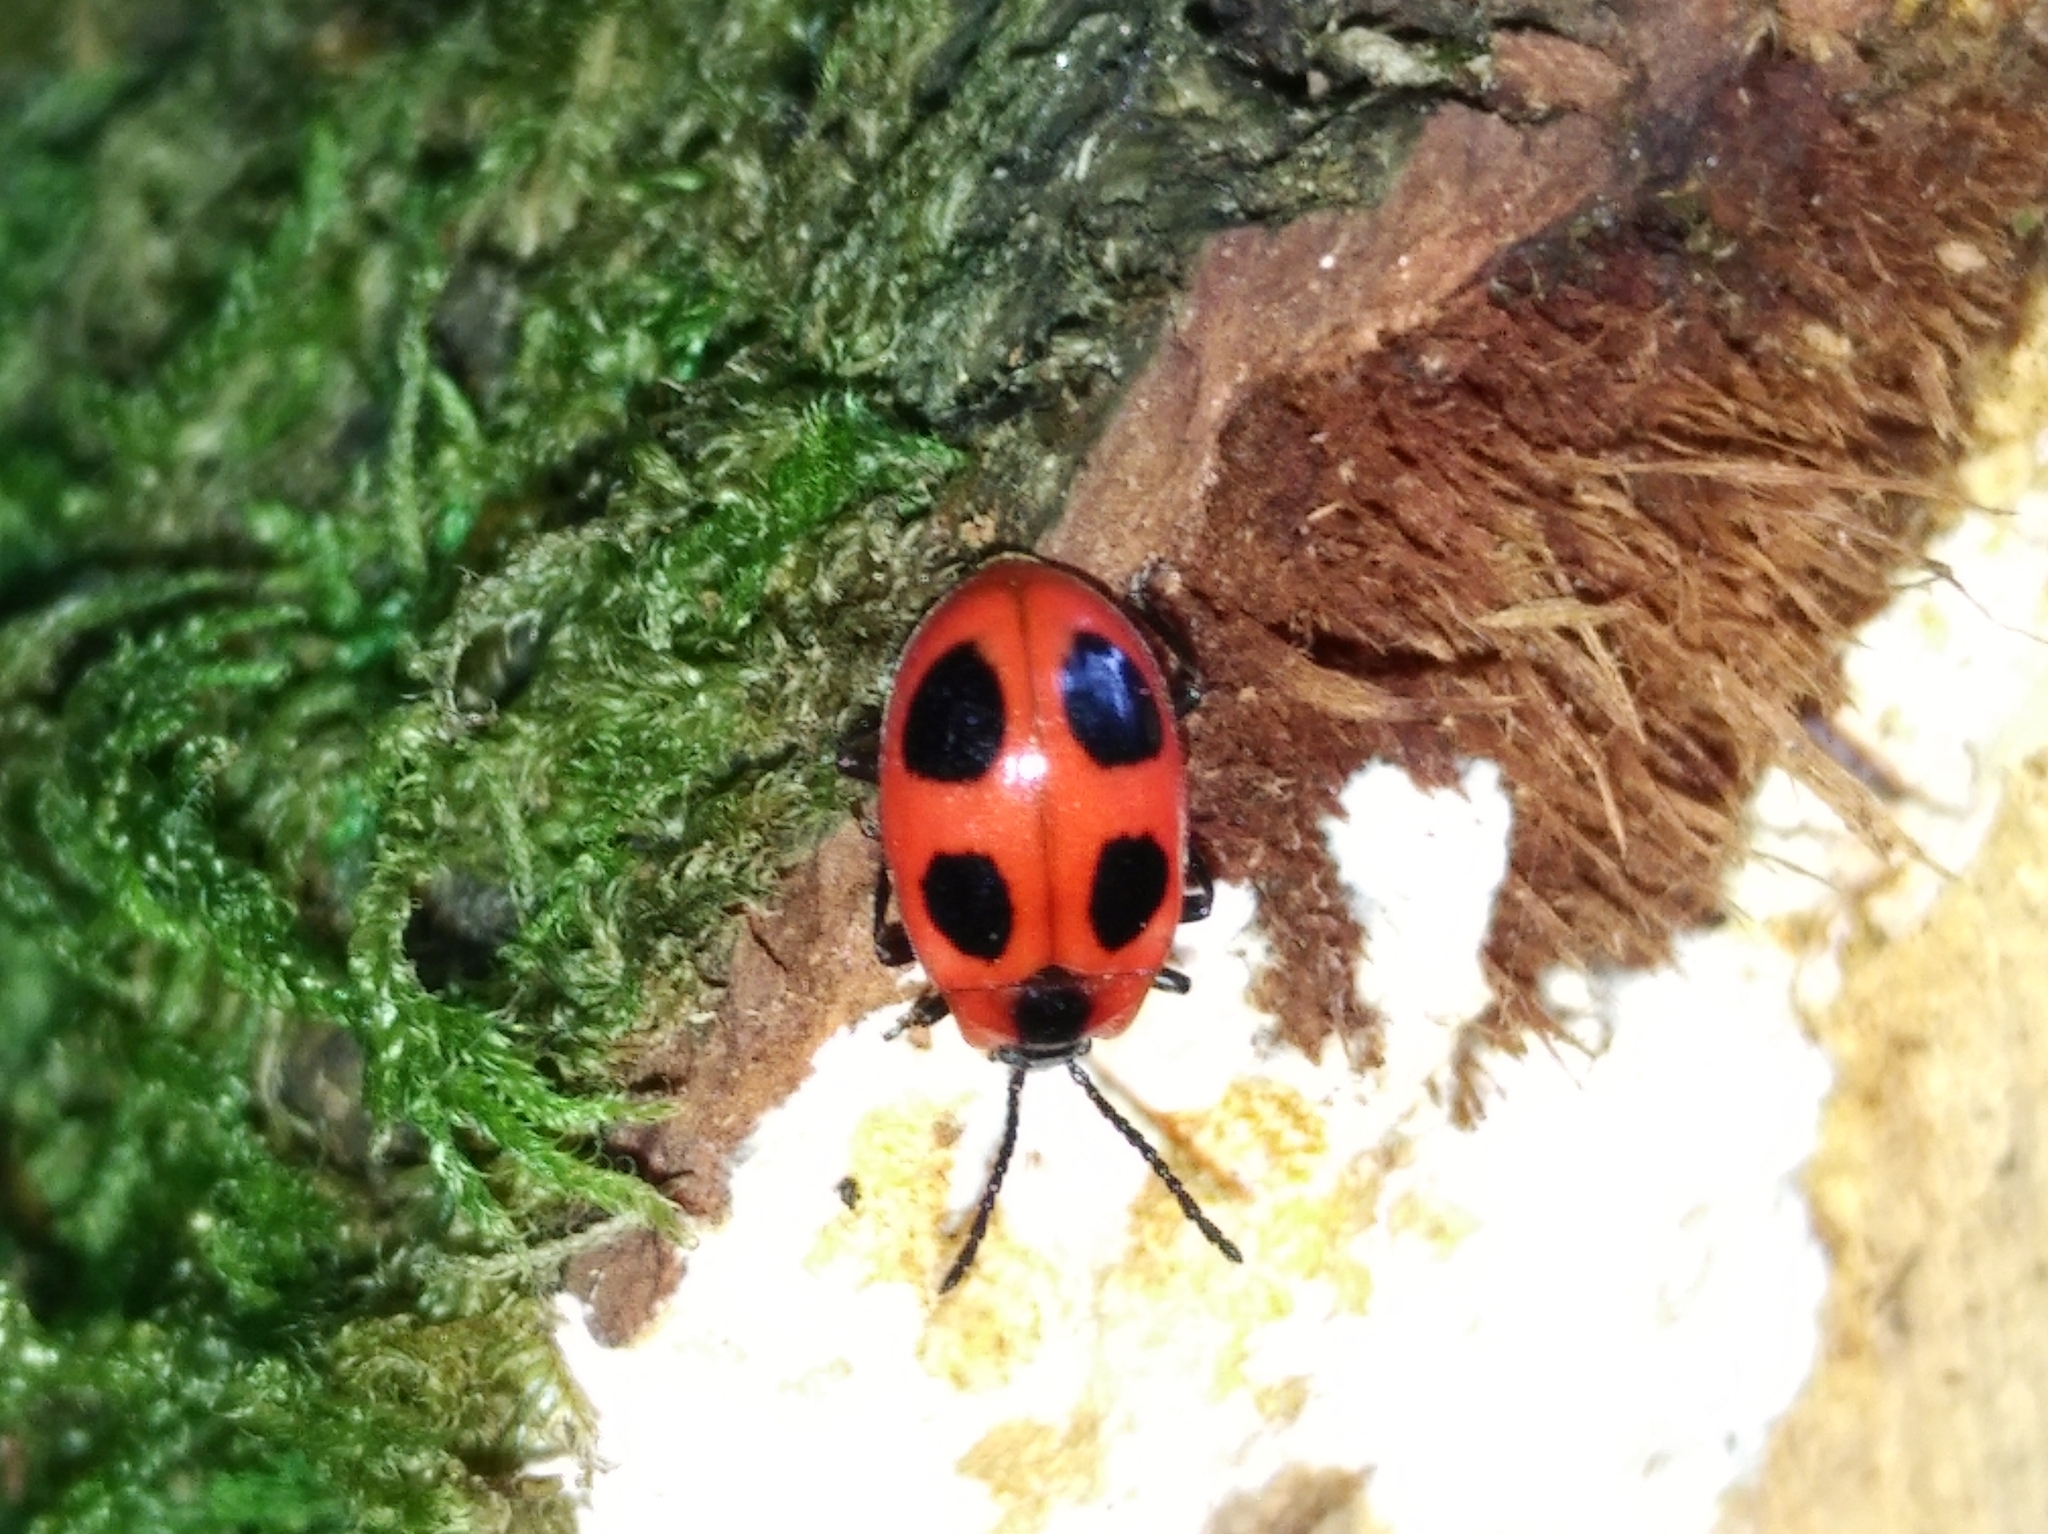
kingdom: Animalia
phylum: Arthropoda
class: Insecta
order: Coleoptera
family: Endomychidae
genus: Endomychus
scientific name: Endomychus coccineus
